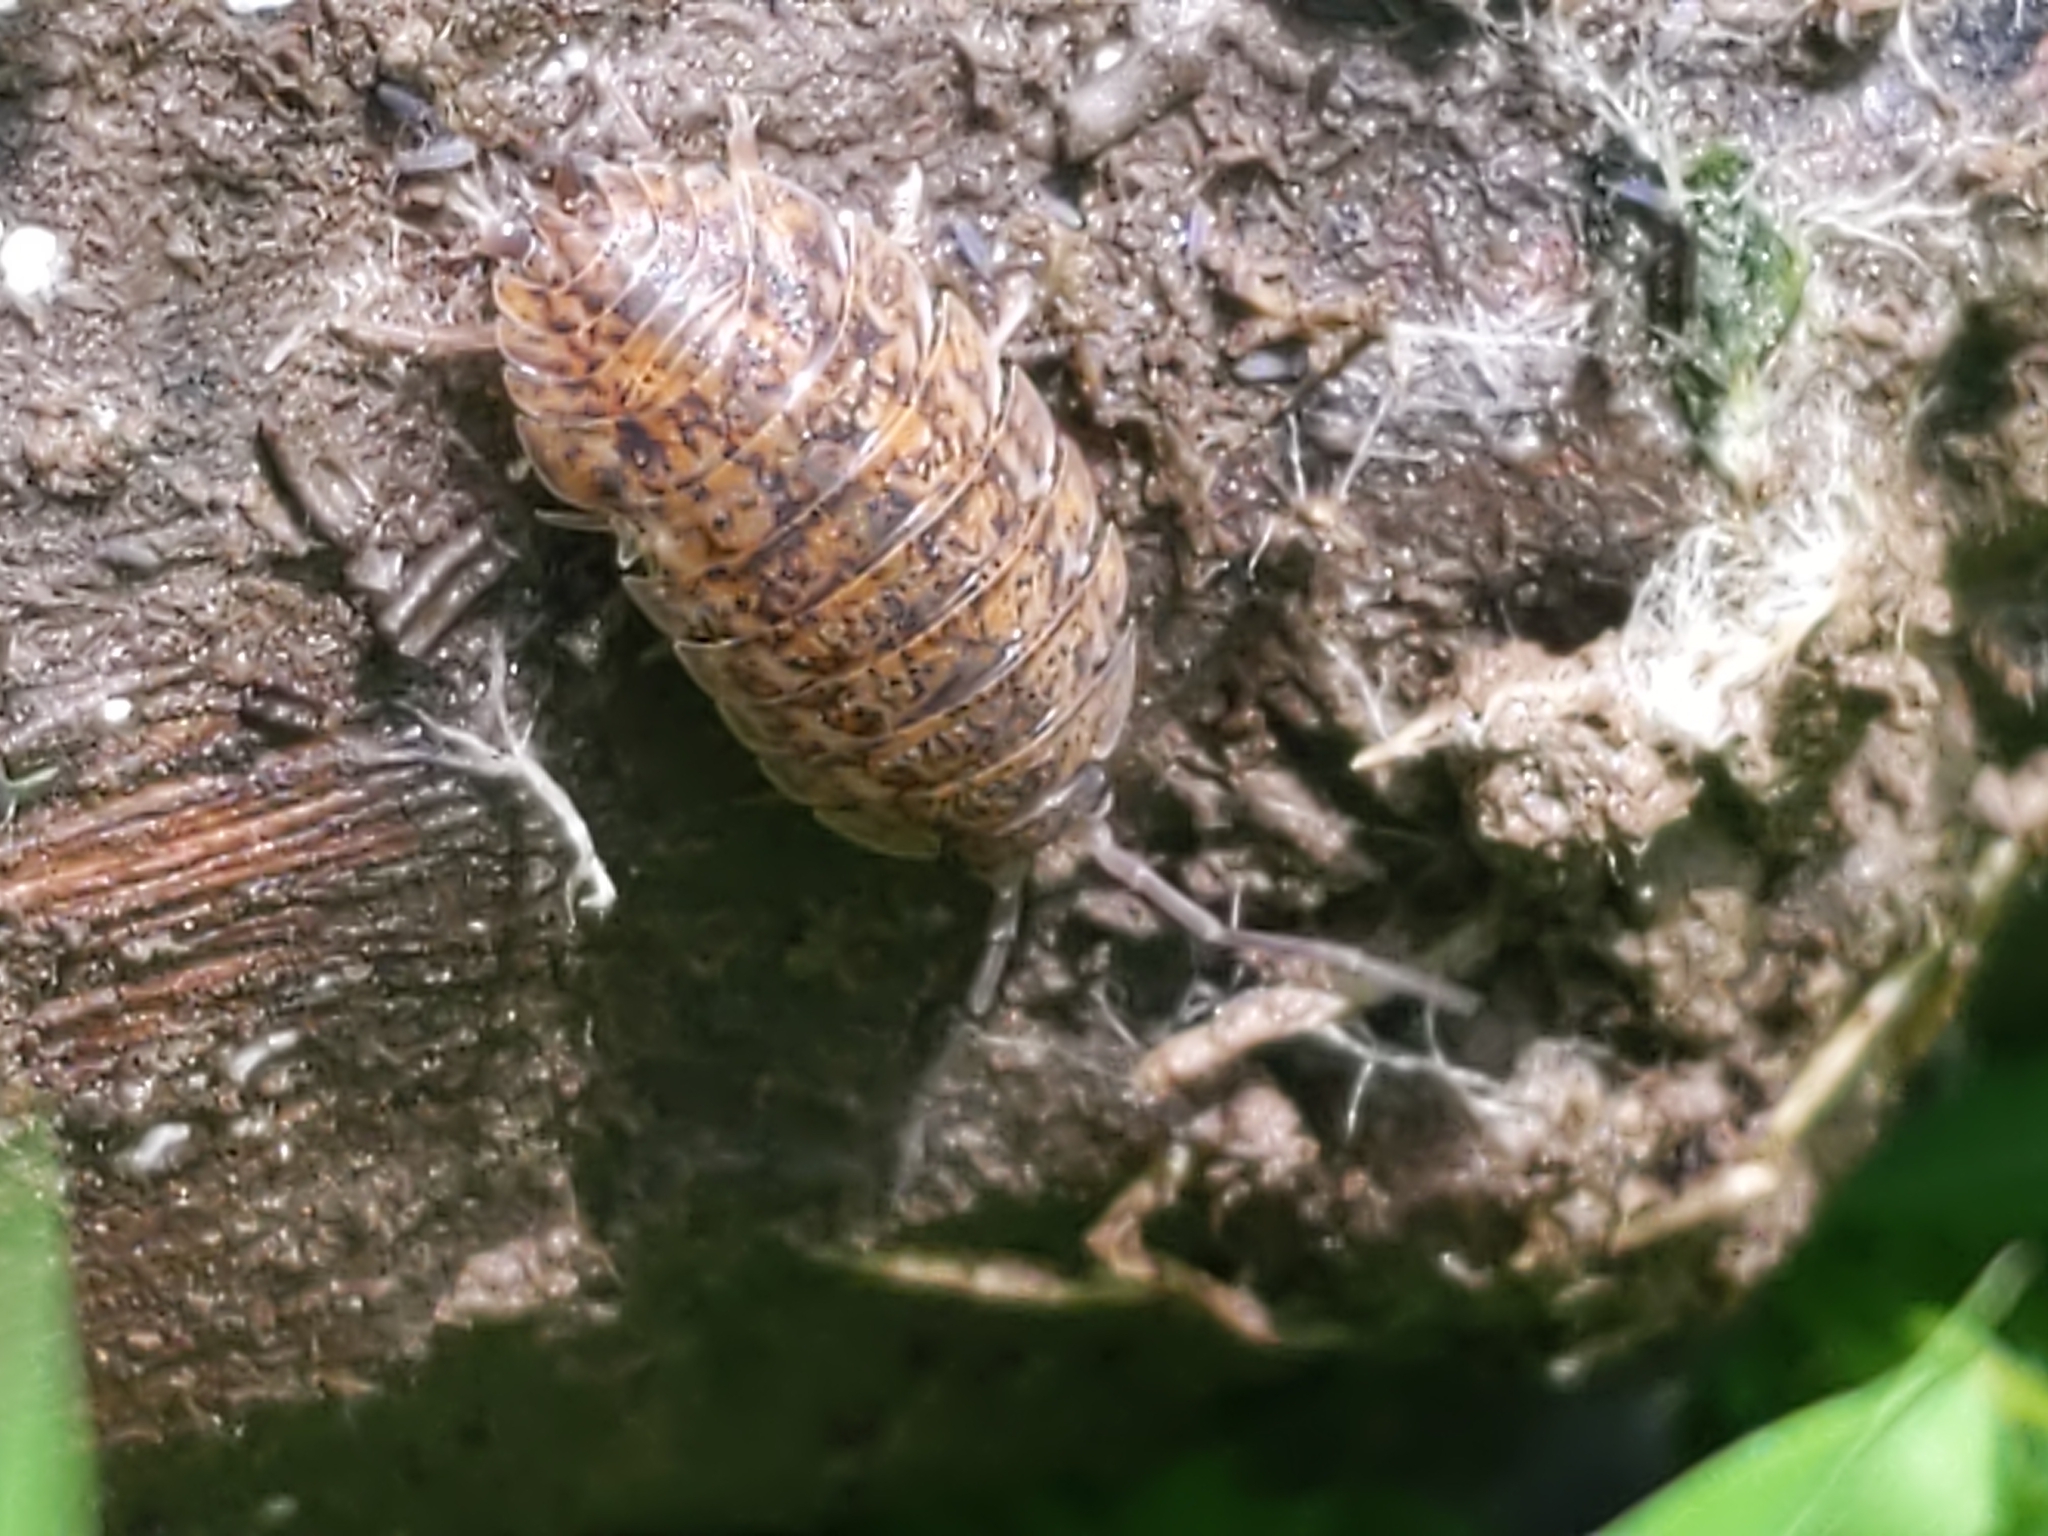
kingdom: Animalia
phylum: Arthropoda
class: Malacostraca
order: Isopoda
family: Trachelipodidae
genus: Trachelipus
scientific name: Trachelipus rathkii
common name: Isopod
